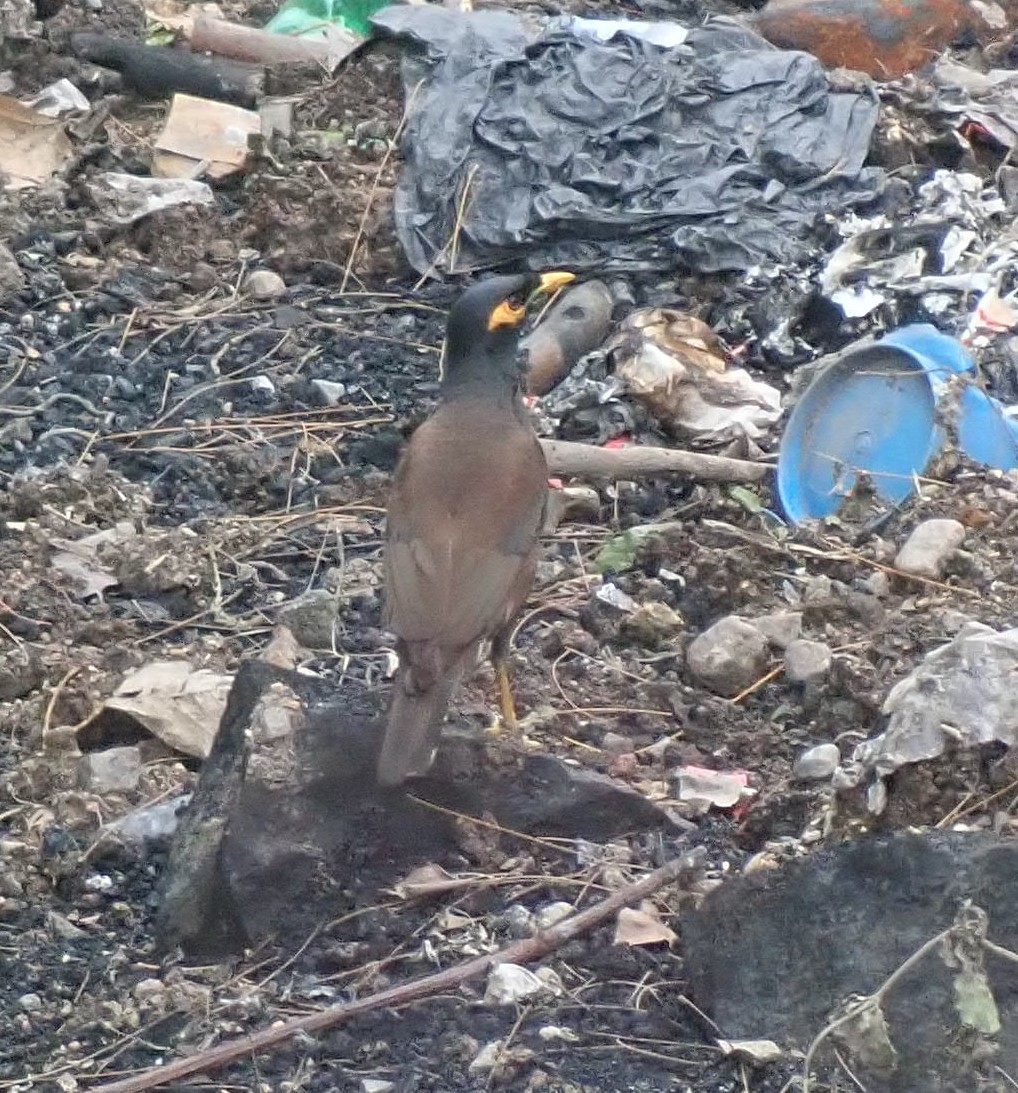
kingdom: Animalia
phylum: Chordata
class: Aves
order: Passeriformes
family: Sturnidae
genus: Acridotheres
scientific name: Acridotheres tristis
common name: Common myna
